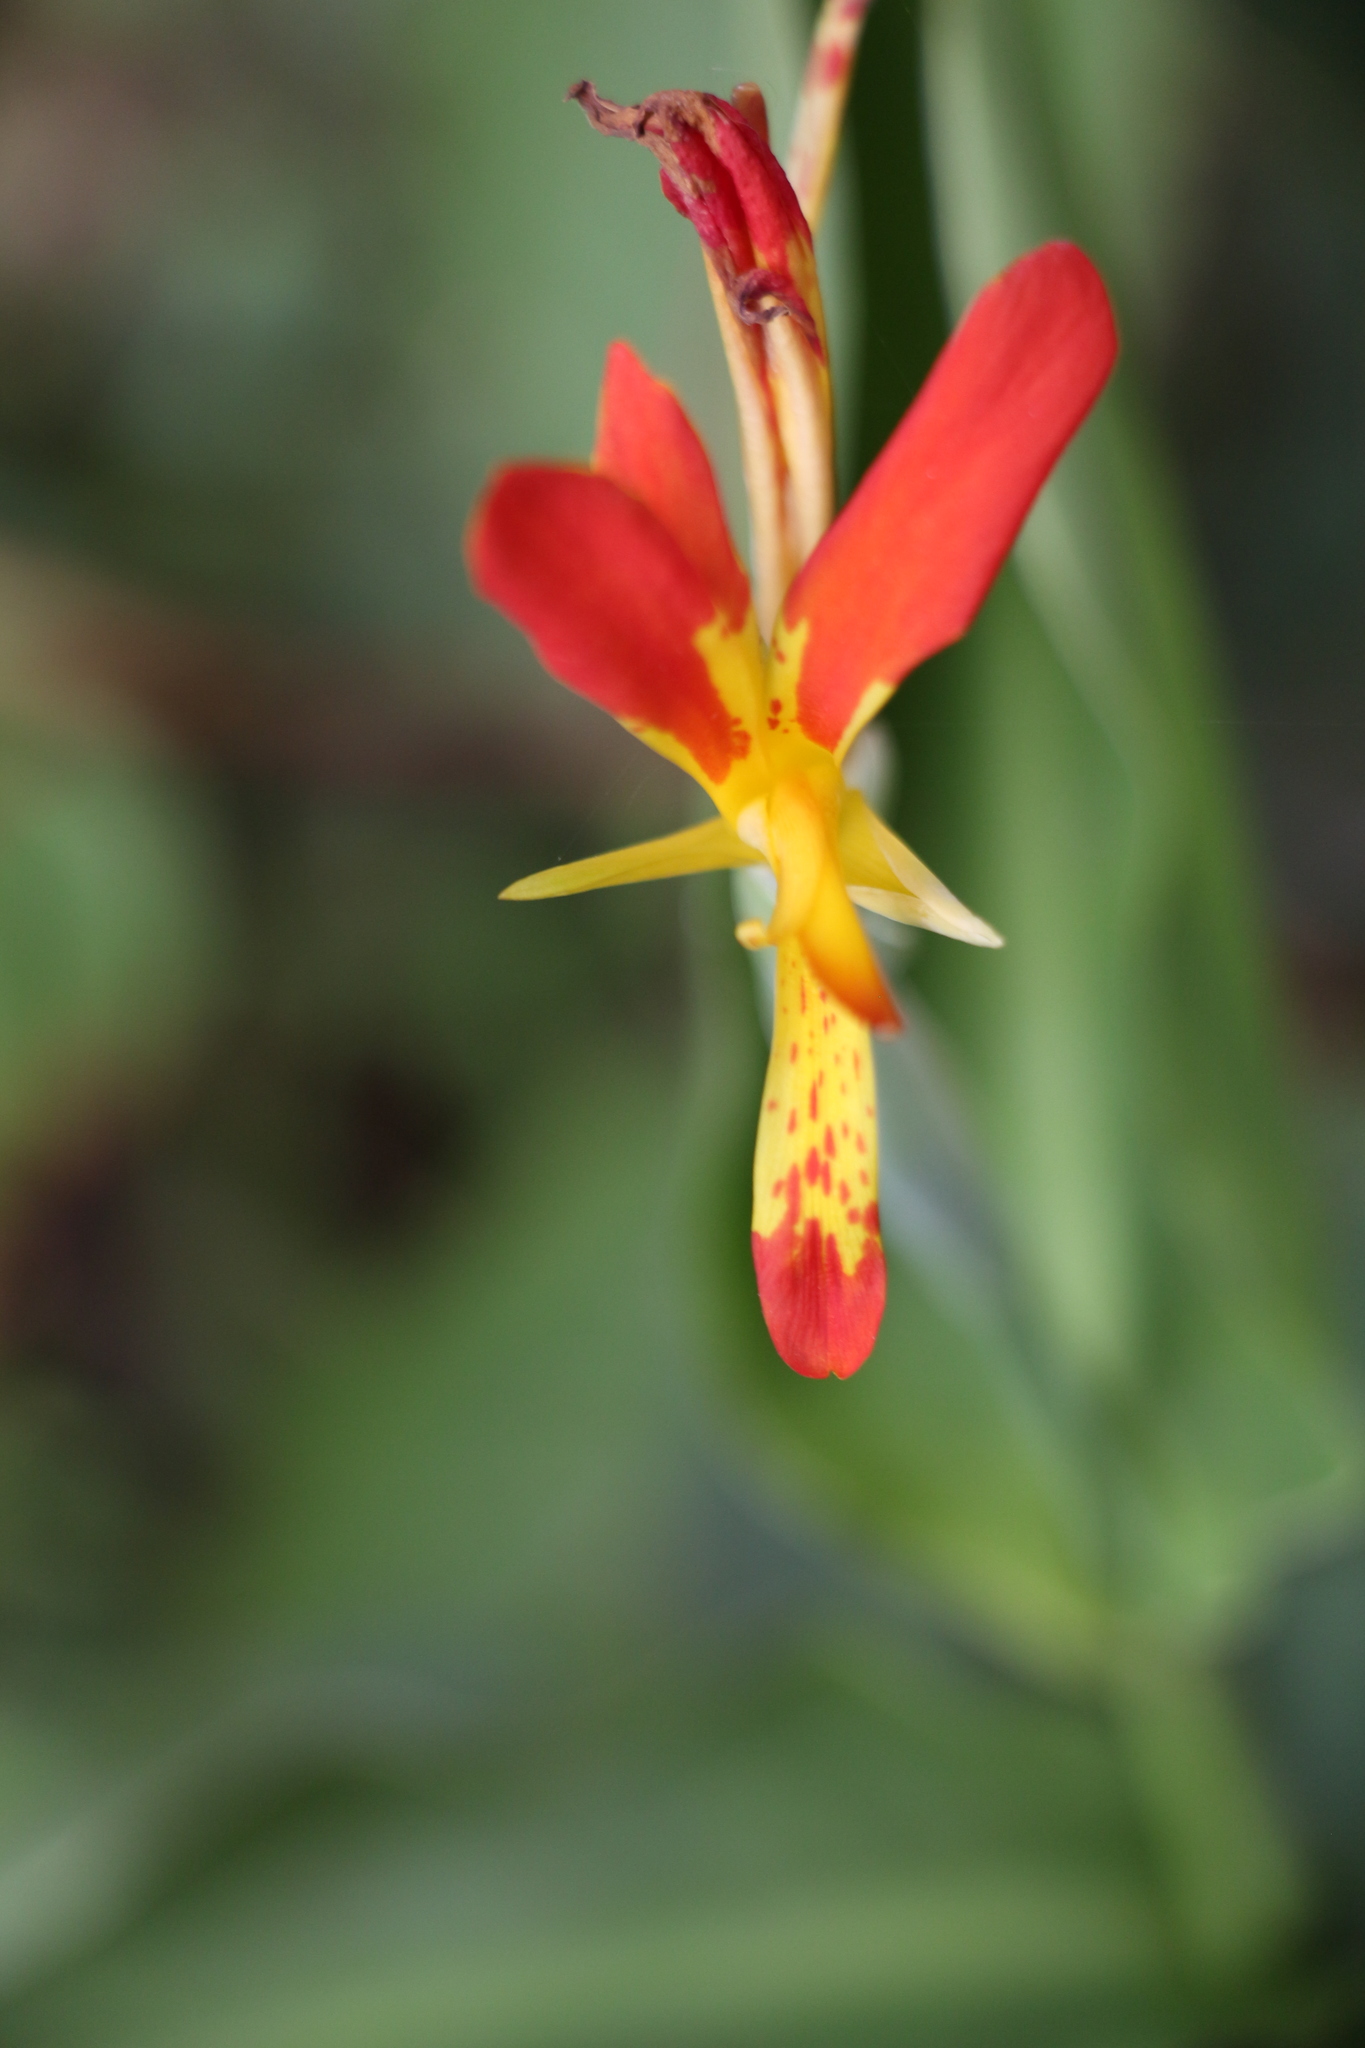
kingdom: Plantae
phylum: Tracheophyta
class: Liliopsida
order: Zingiberales
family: Cannaceae
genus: Canna
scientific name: Canna indica
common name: Indian shot
